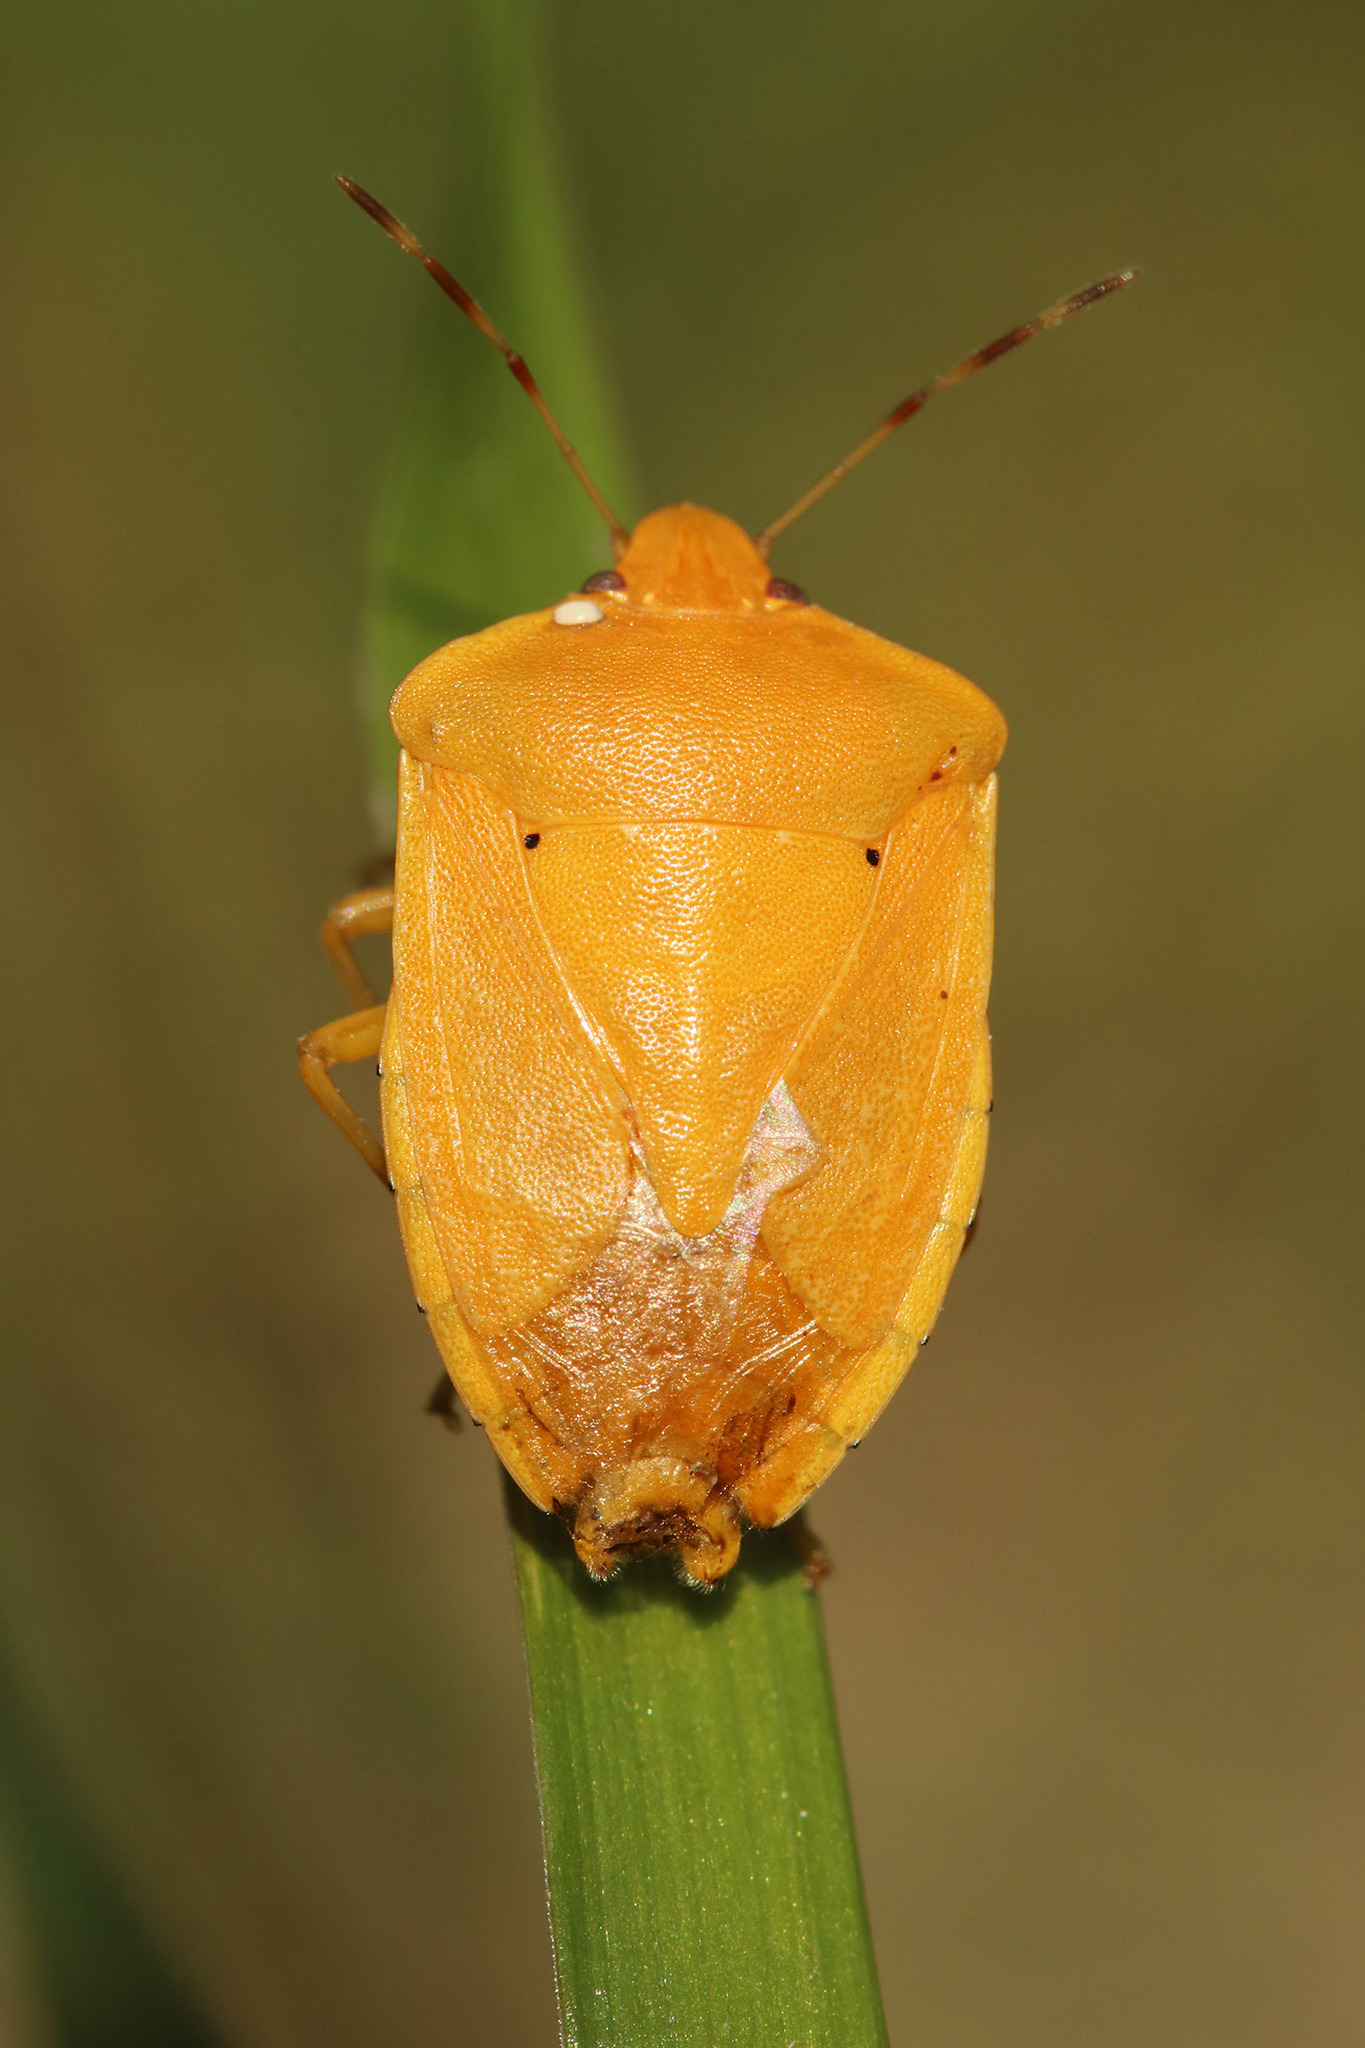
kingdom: Animalia
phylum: Arthropoda
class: Insecta
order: Hemiptera
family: Pentatomidae
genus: Nezara
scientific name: Nezara viridula
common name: Southern green stink bug
